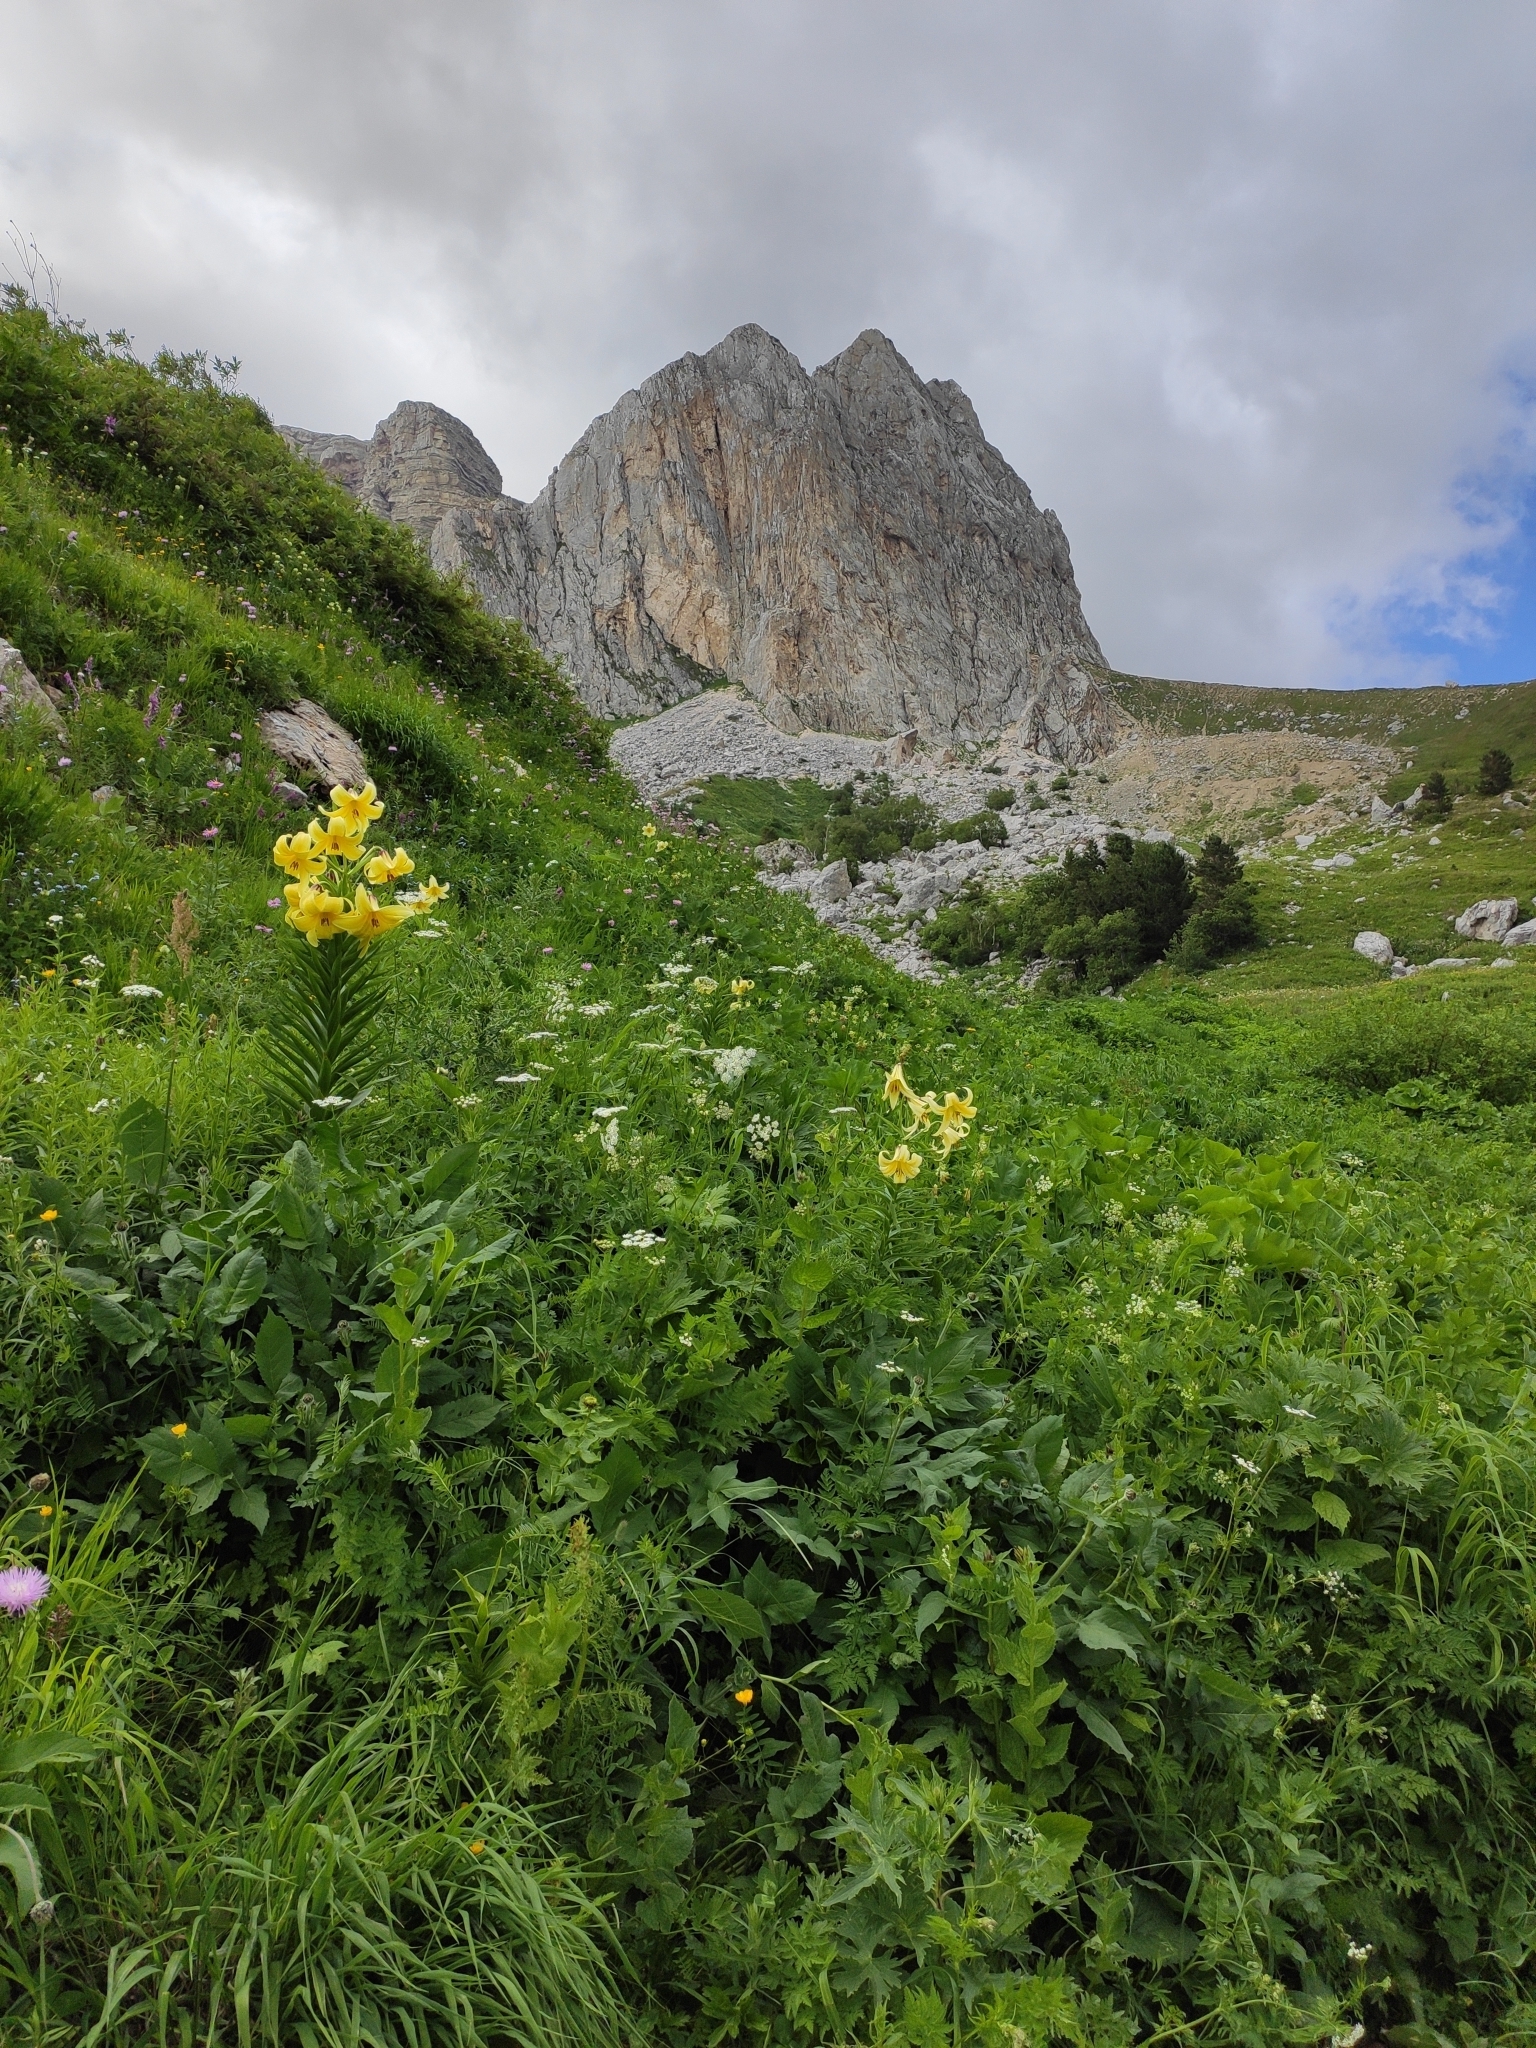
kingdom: Plantae
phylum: Tracheophyta
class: Liliopsida
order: Liliales
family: Liliaceae
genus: Lilium
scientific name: Lilium kesselringianum
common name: Kesselring lily
